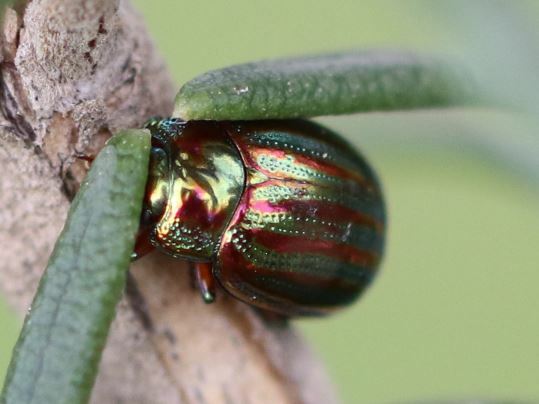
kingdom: Animalia
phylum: Arthropoda
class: Insecta
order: Coleoptera
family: Chrysomelidae
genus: Chrysolina
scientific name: Chrysolina americana
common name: Rosemary beetle
